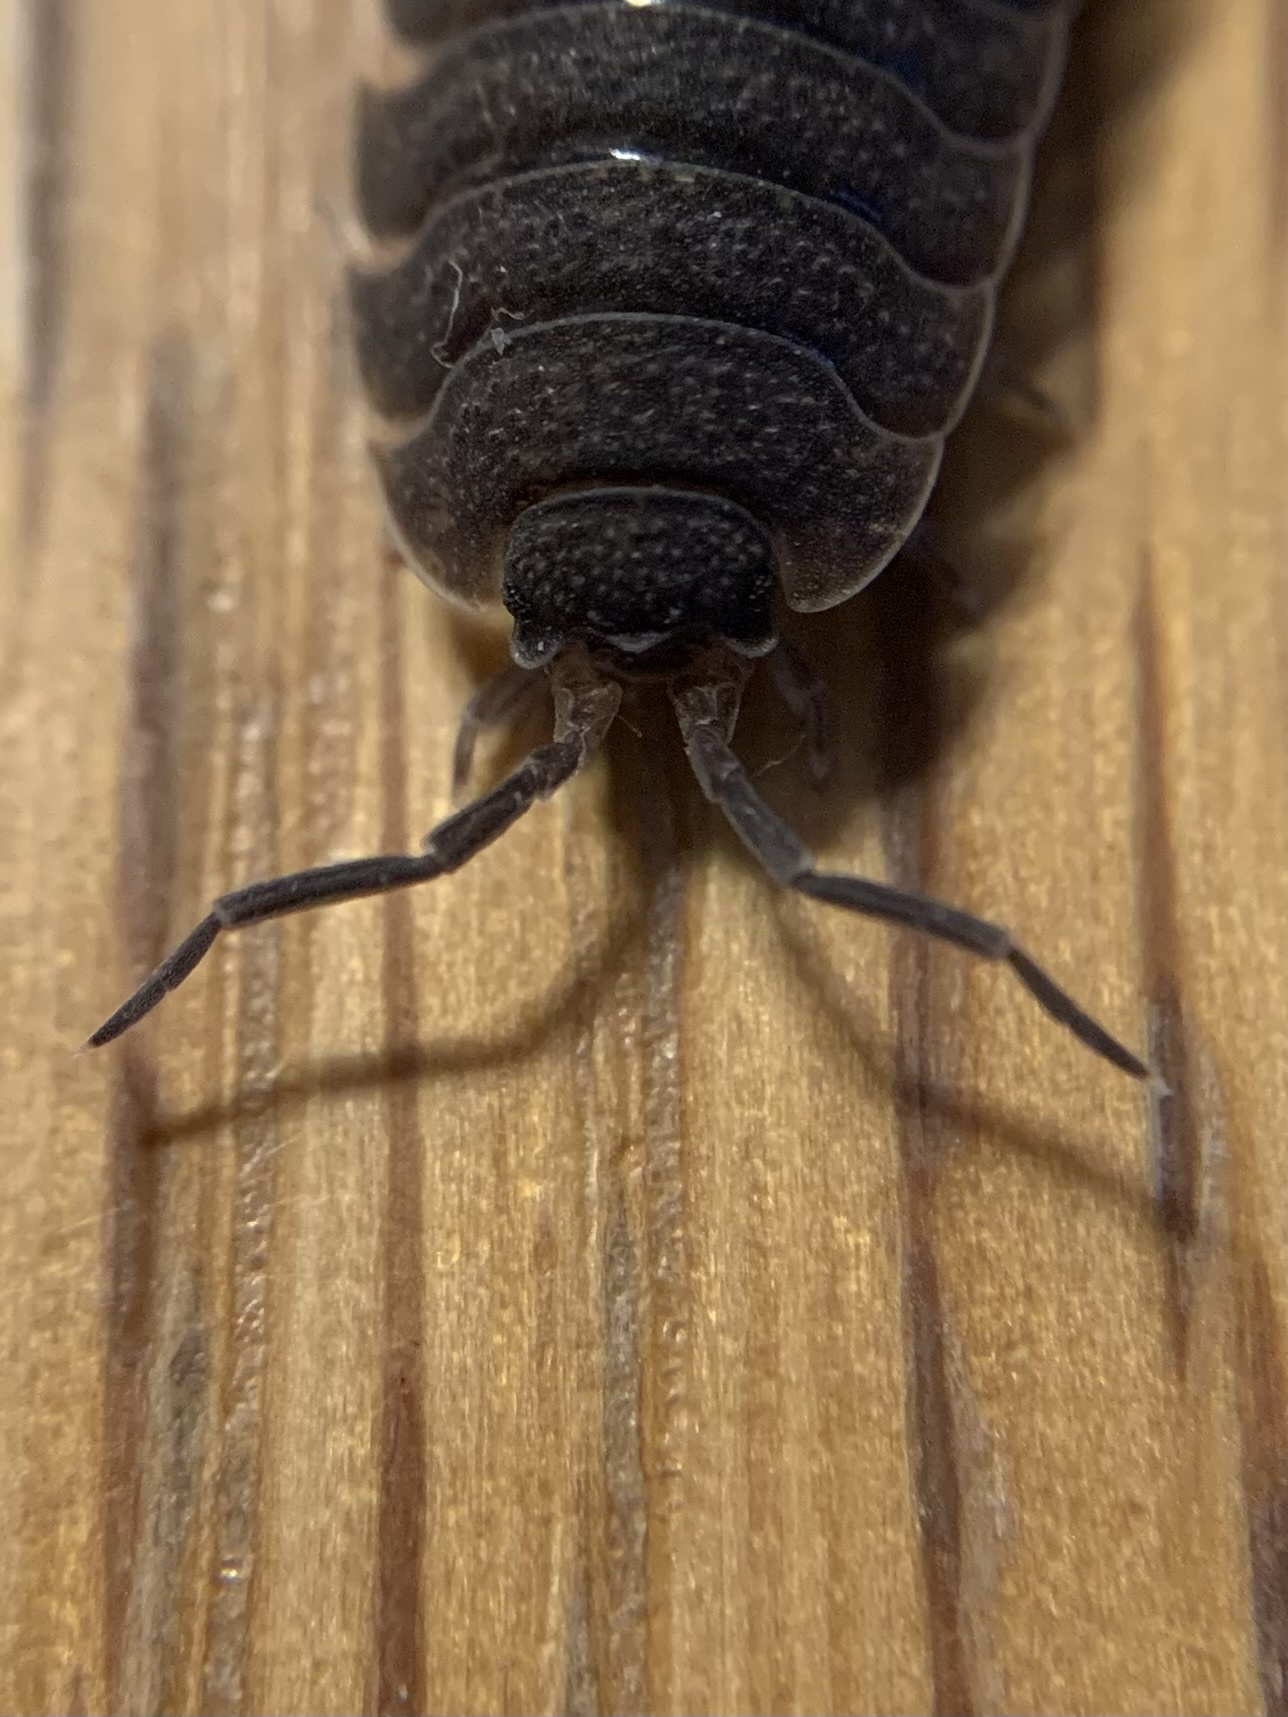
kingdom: Animalia
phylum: Arthropoda
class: Malacostraca
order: Isopoda
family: Porcellionidae
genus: Porcellio
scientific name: Porcellio scaber
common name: Common rough woodlouse
